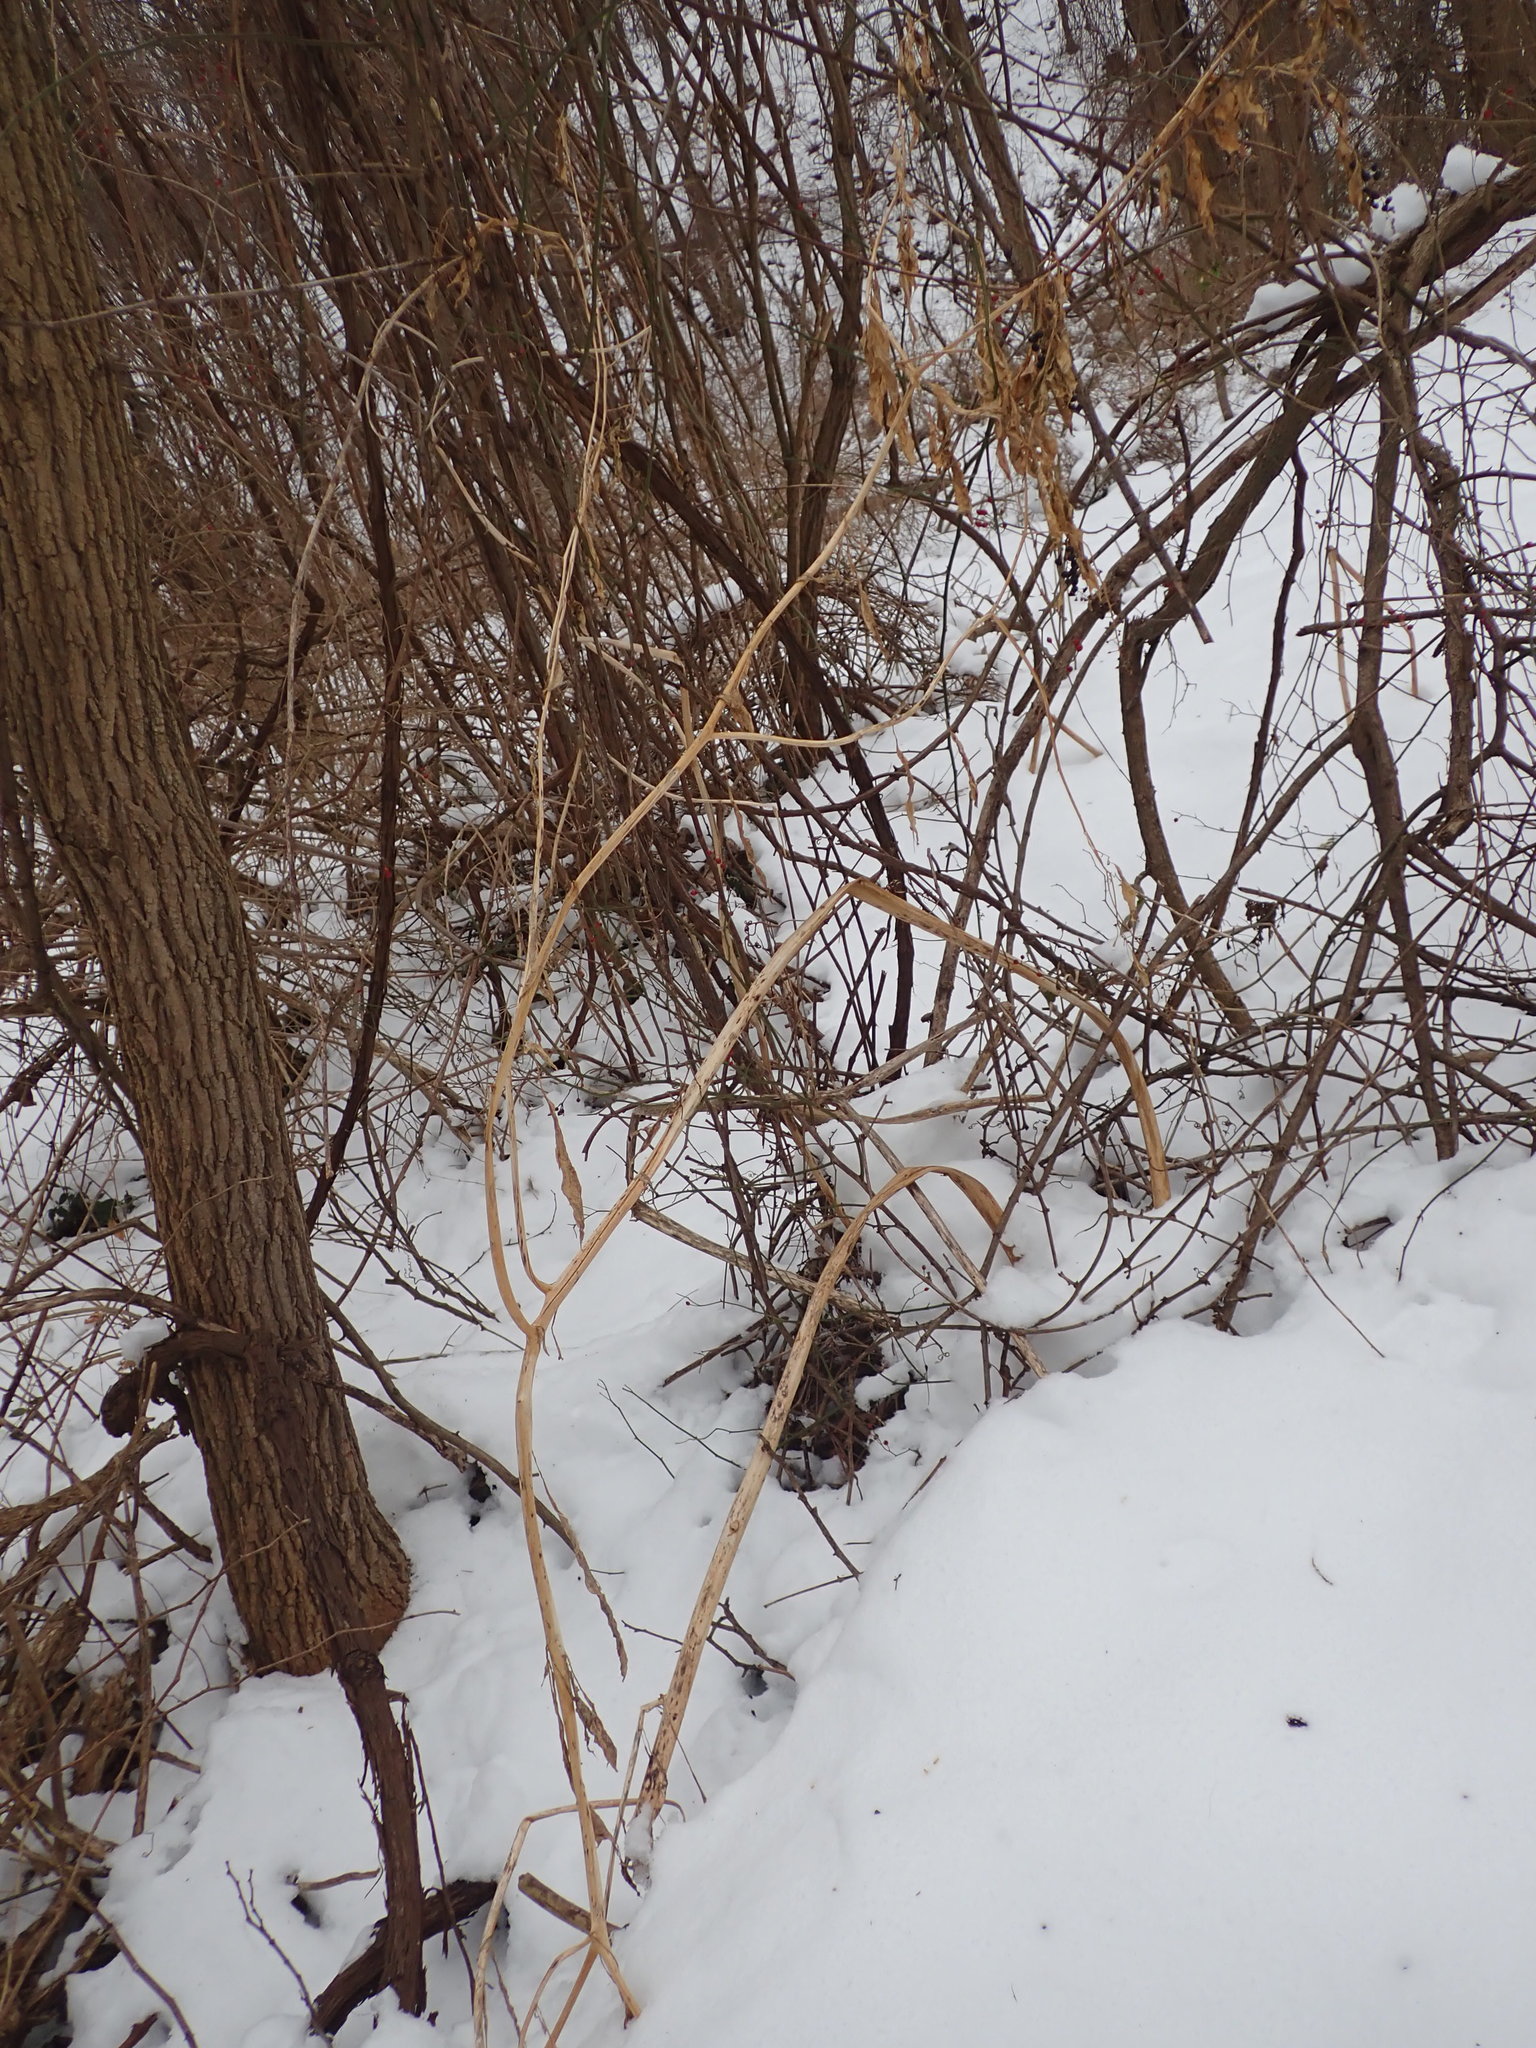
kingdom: Plantae
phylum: Tracheophyta
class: Magnoliopsida
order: Caryophyllales
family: Phytolaccaceae
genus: Phytolacca
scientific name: Phytolacca americana
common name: American pokeweed
